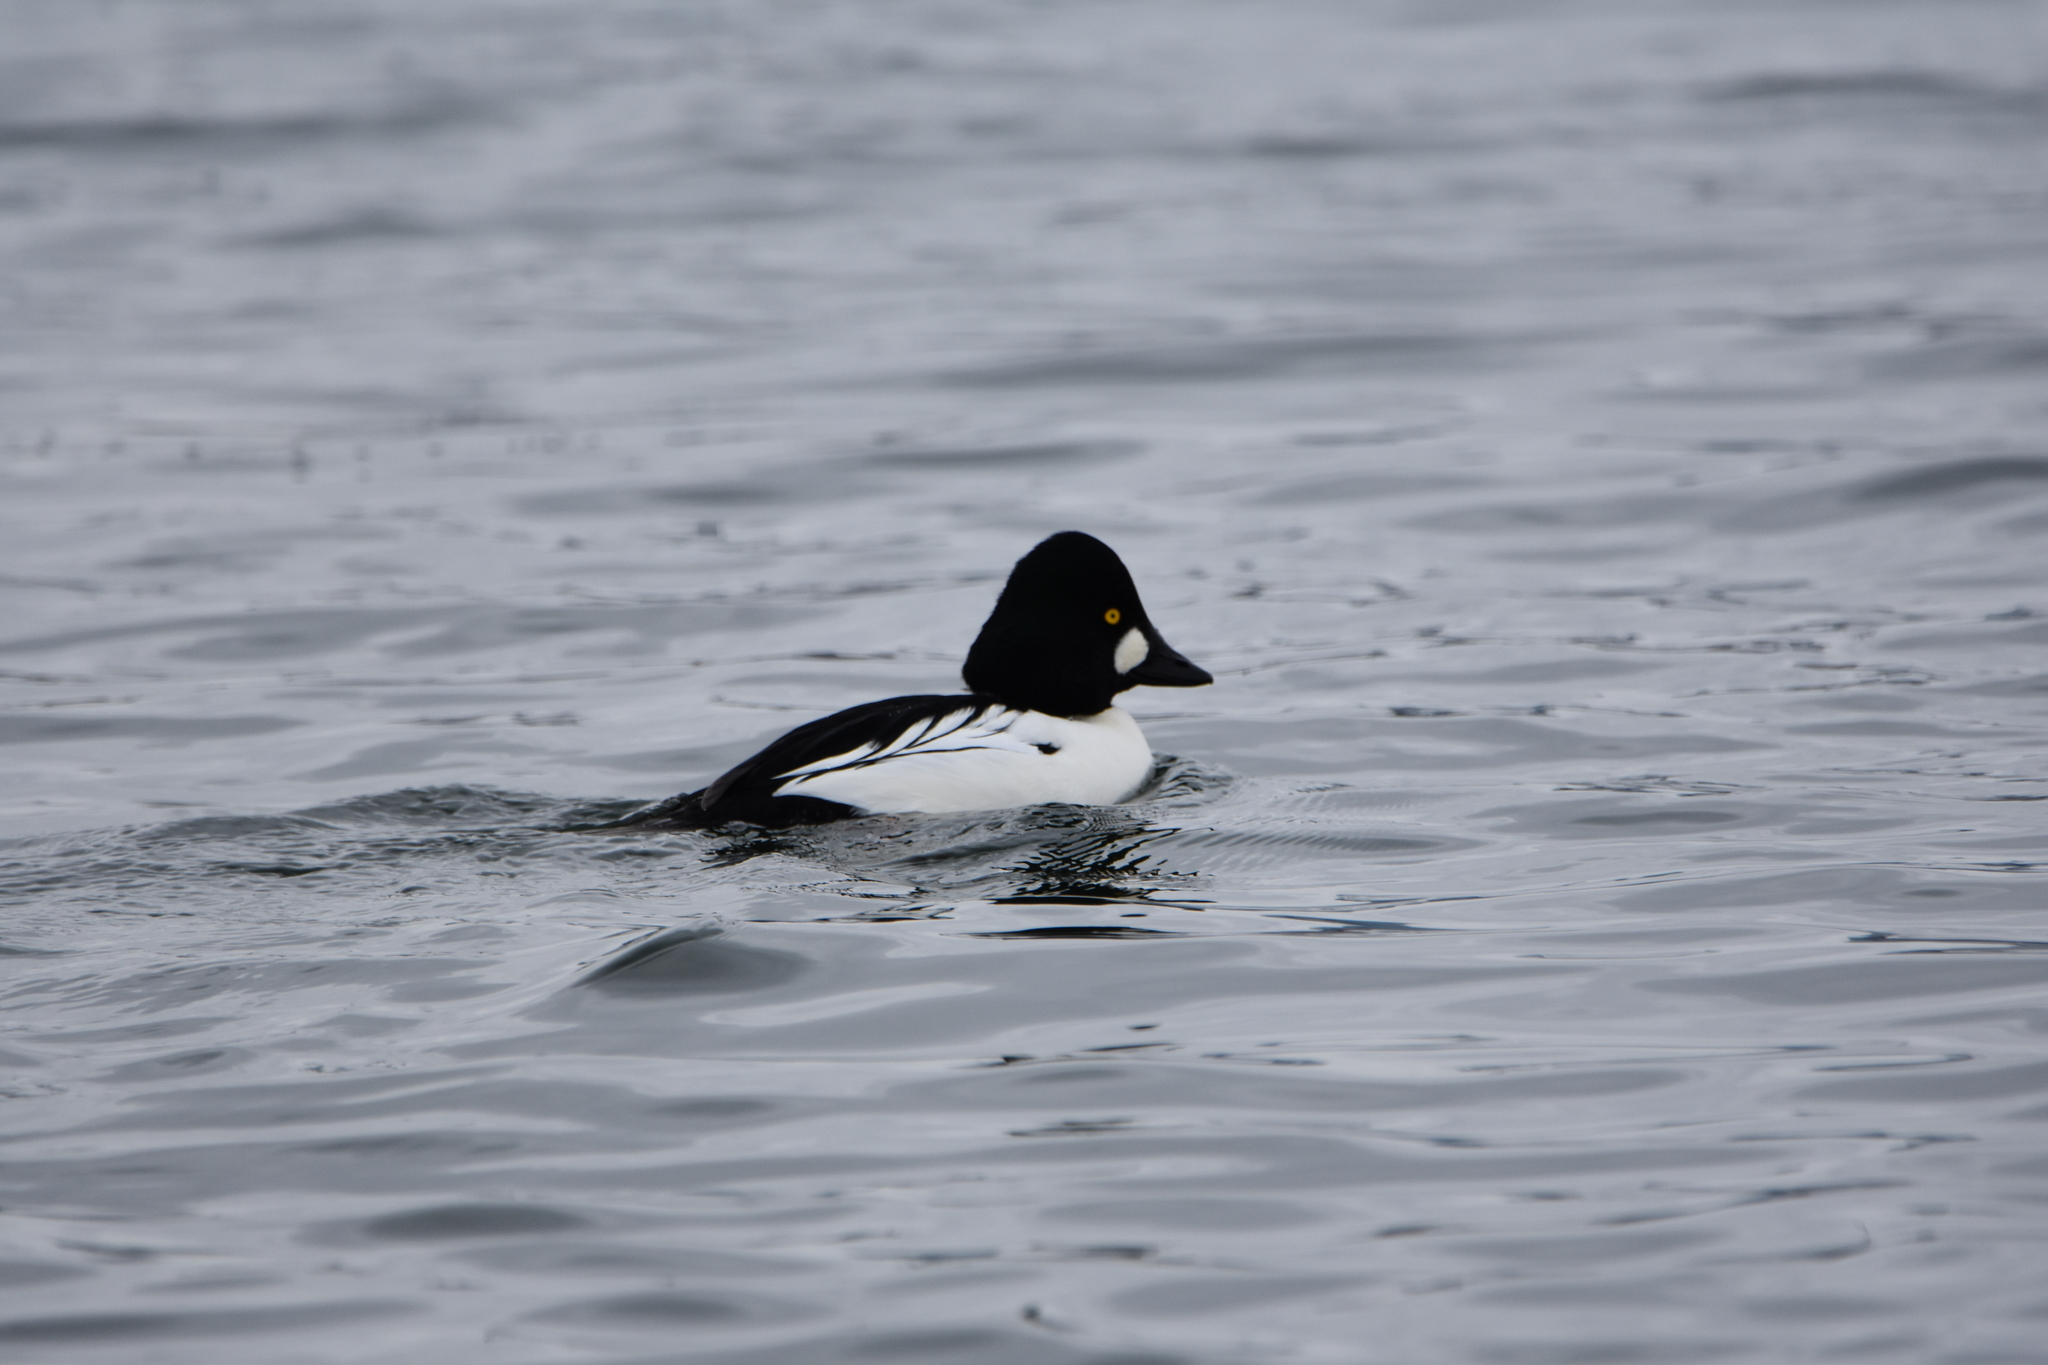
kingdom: Animalia
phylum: Chordata
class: Aves
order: Anseriformes
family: Anatidae
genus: Bucephala
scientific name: Bucephala clangula
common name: Common goldeneye
